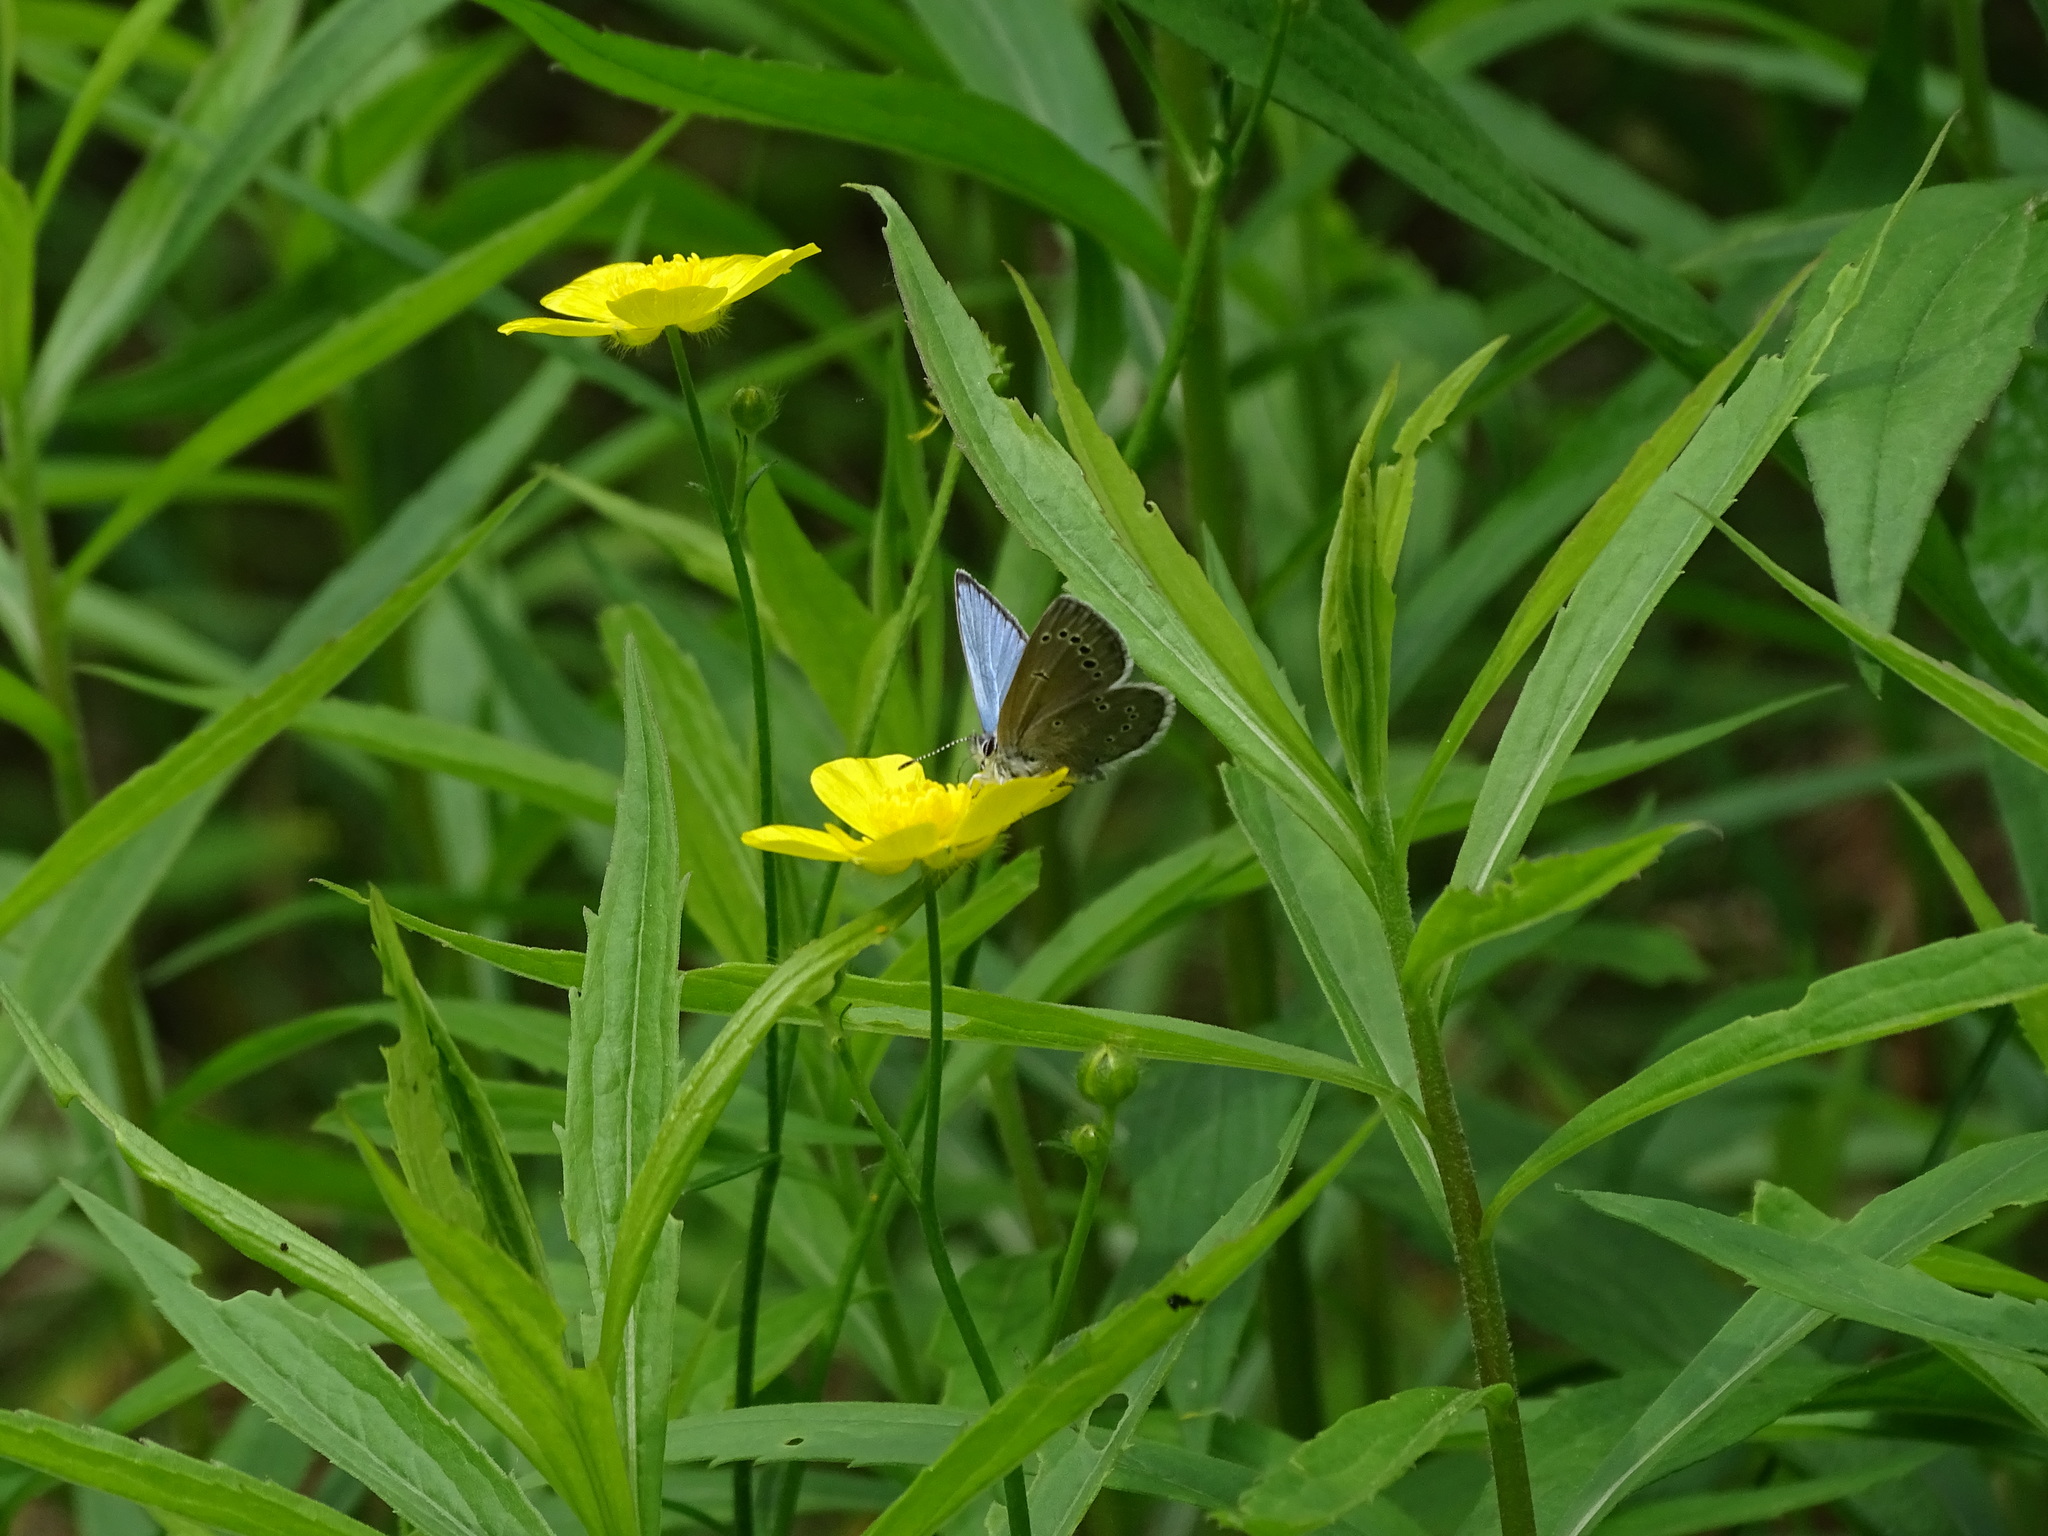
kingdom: Animalia
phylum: Arthropoda
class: Insecta
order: Lepidoptera
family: Lycaenidae
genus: Glaucopsyche
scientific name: Glaucopsyche lygdamus
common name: Silvery blue
